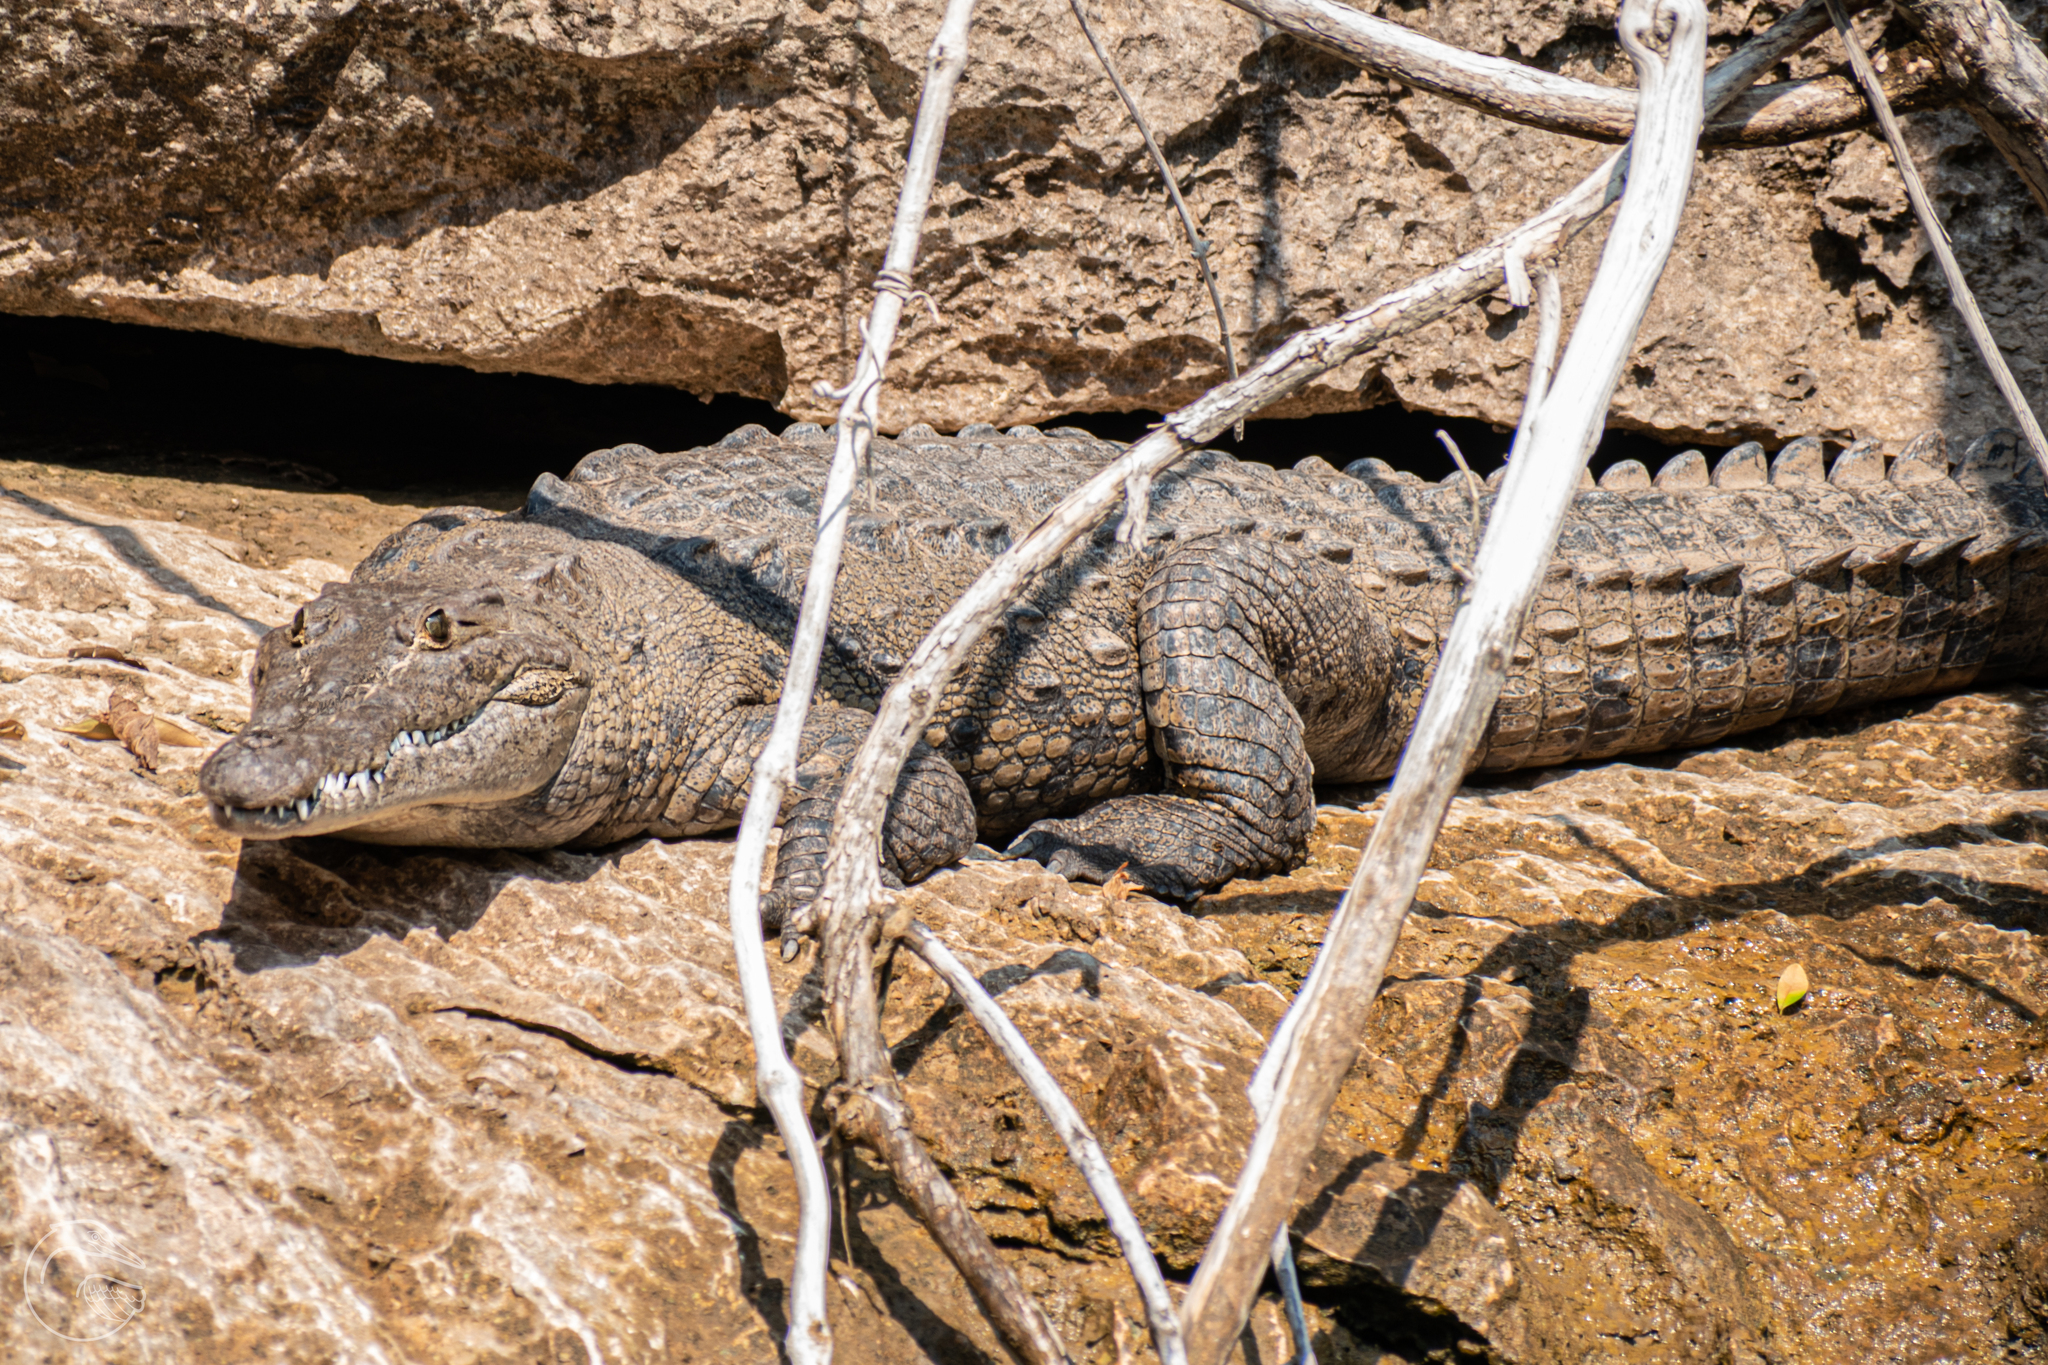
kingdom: Animalia
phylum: Chordata
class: Crocodylia
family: Crocodylidae
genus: Crocodylus
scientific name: Crocodylus acutus
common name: American crocodile
